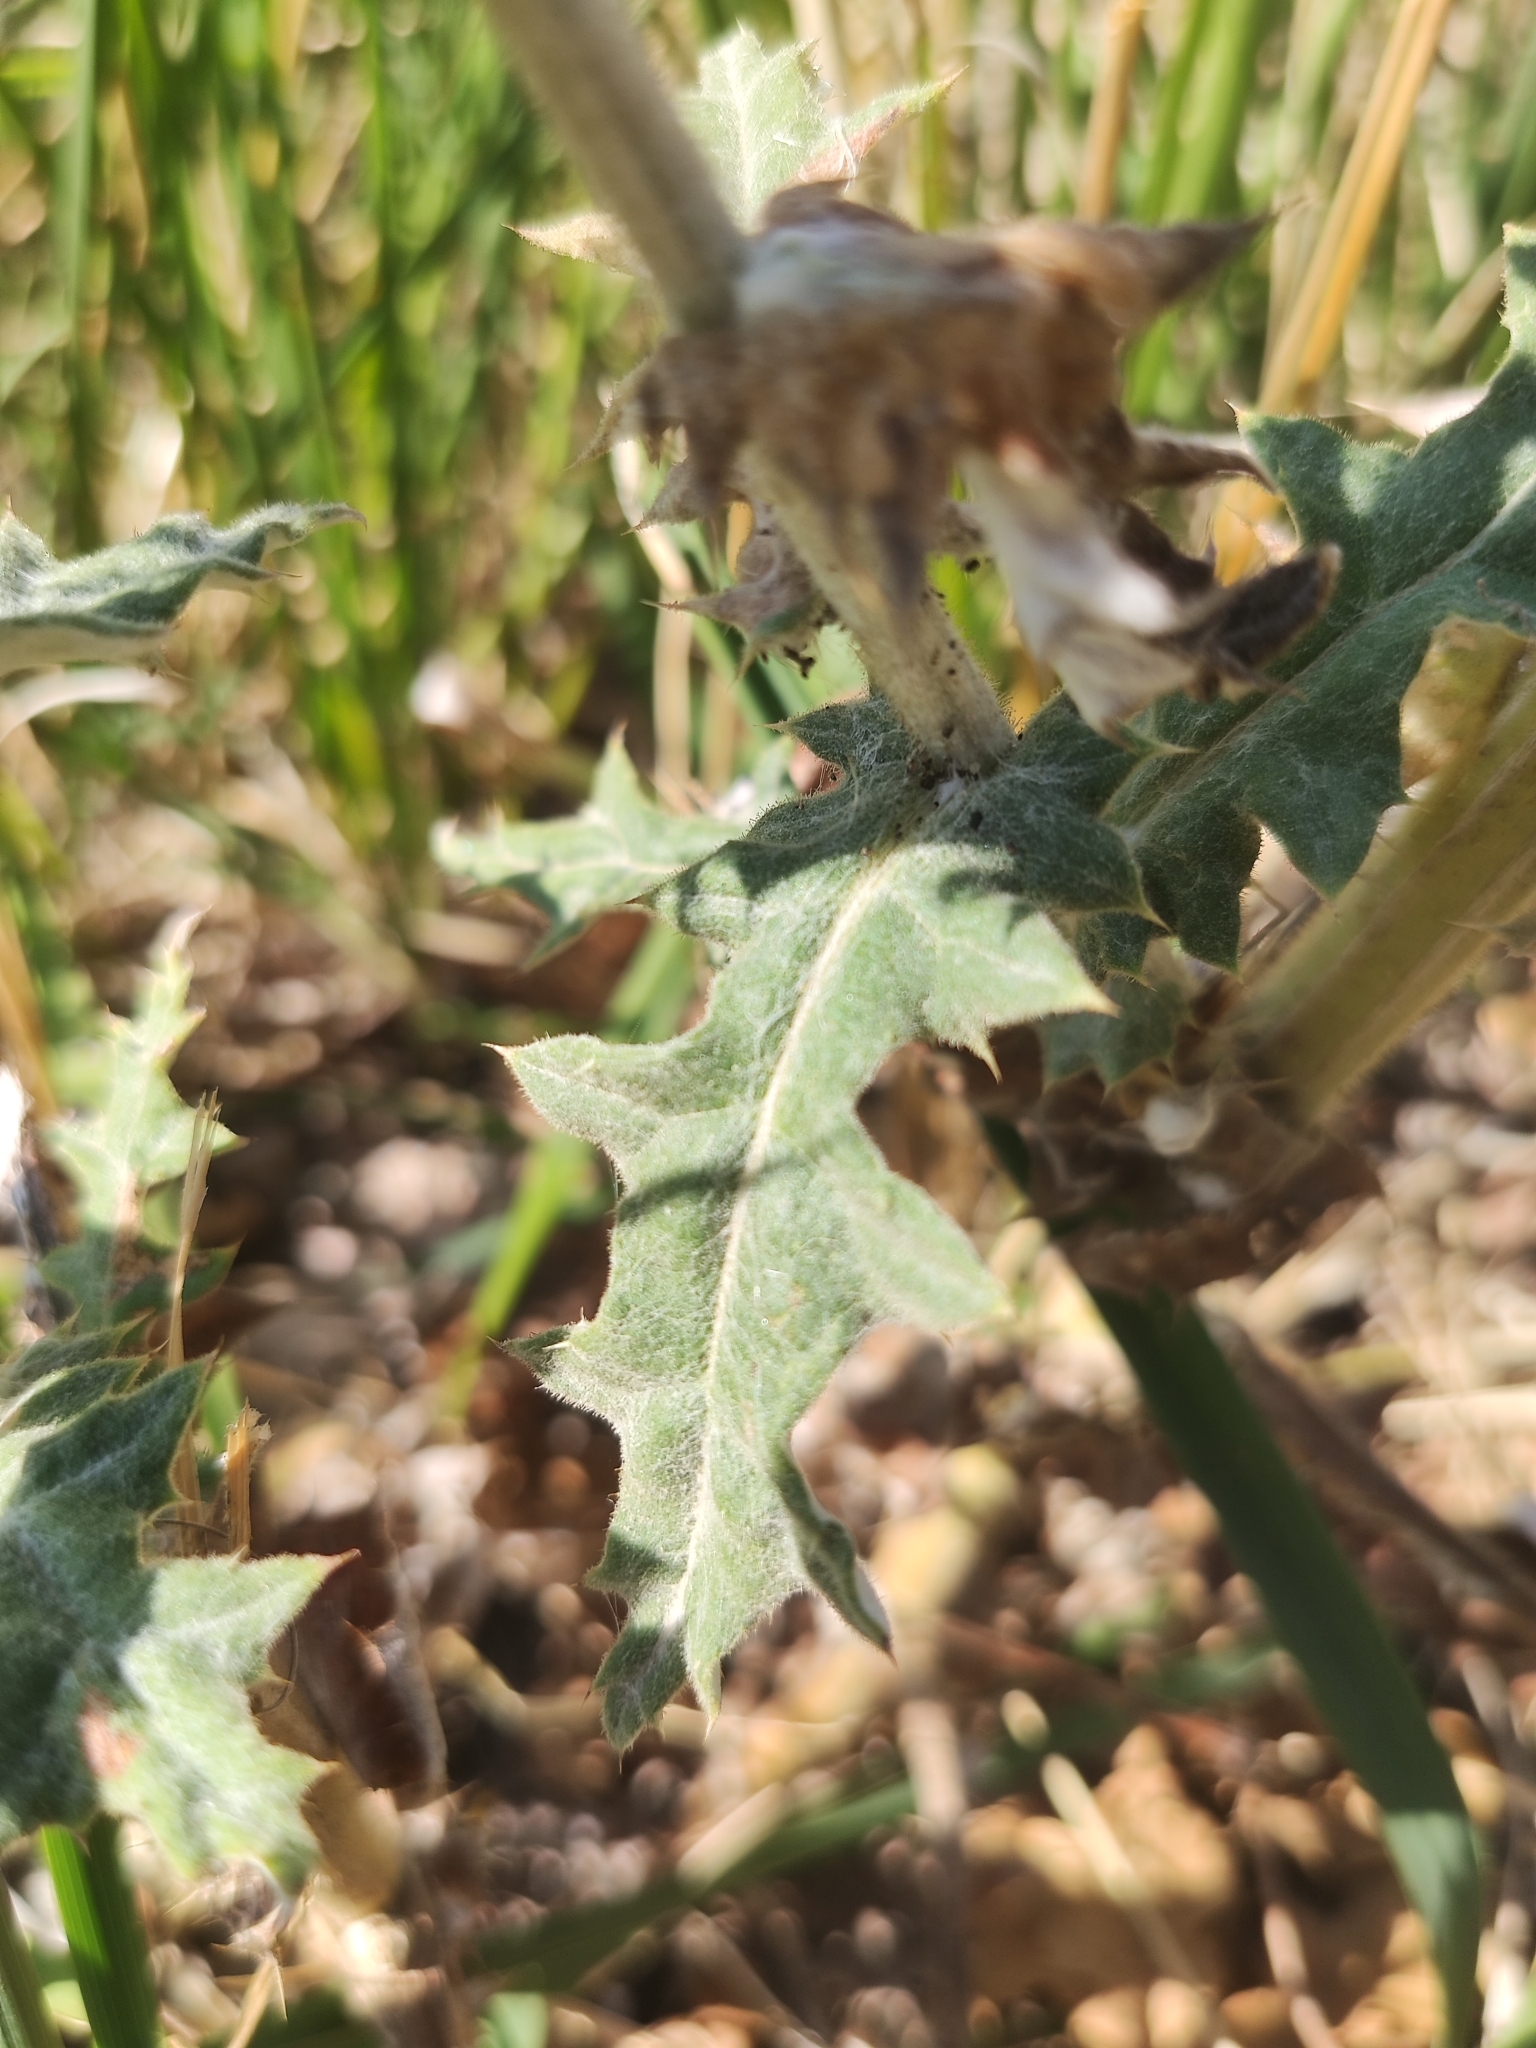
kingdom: Plantae
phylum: Tracheophyta
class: Magnoliopsida
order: Asterales
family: Asteraceae
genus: Echinops
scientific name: Echinops sphaerocephalus
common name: Glandular globe-thistle
